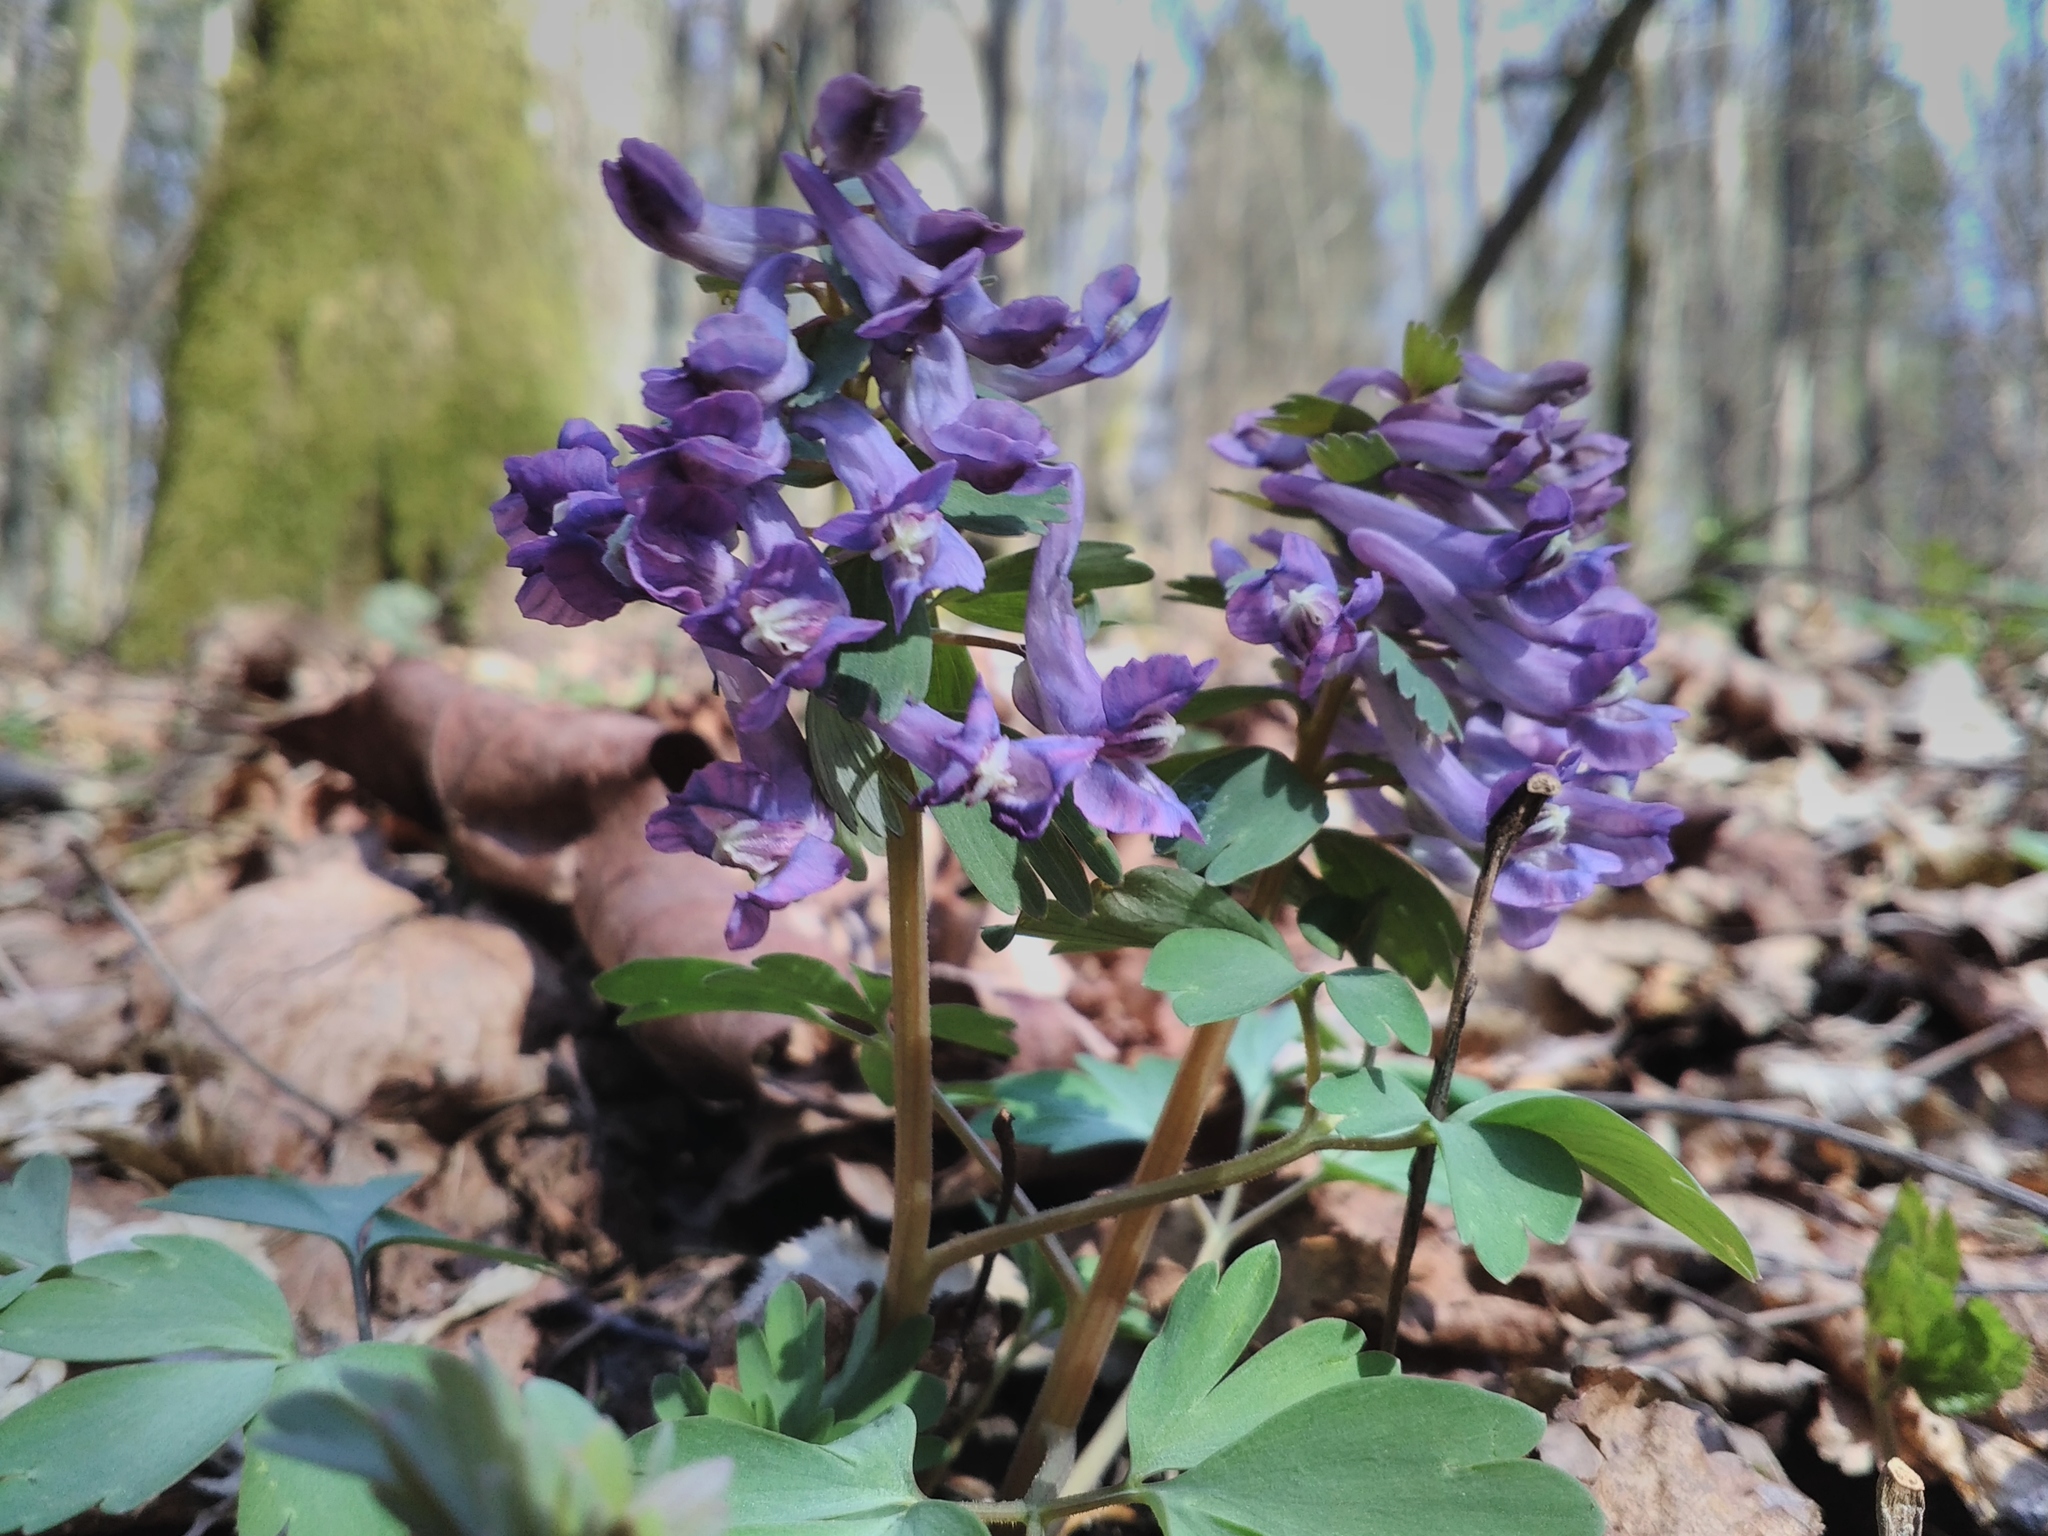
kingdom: Plantae
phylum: Tracheophyta
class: Magnoliopsida
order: Ranunculales
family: Papaveraceae
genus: Corydalis
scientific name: Corydalis solida
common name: Bird-in-a-bush
